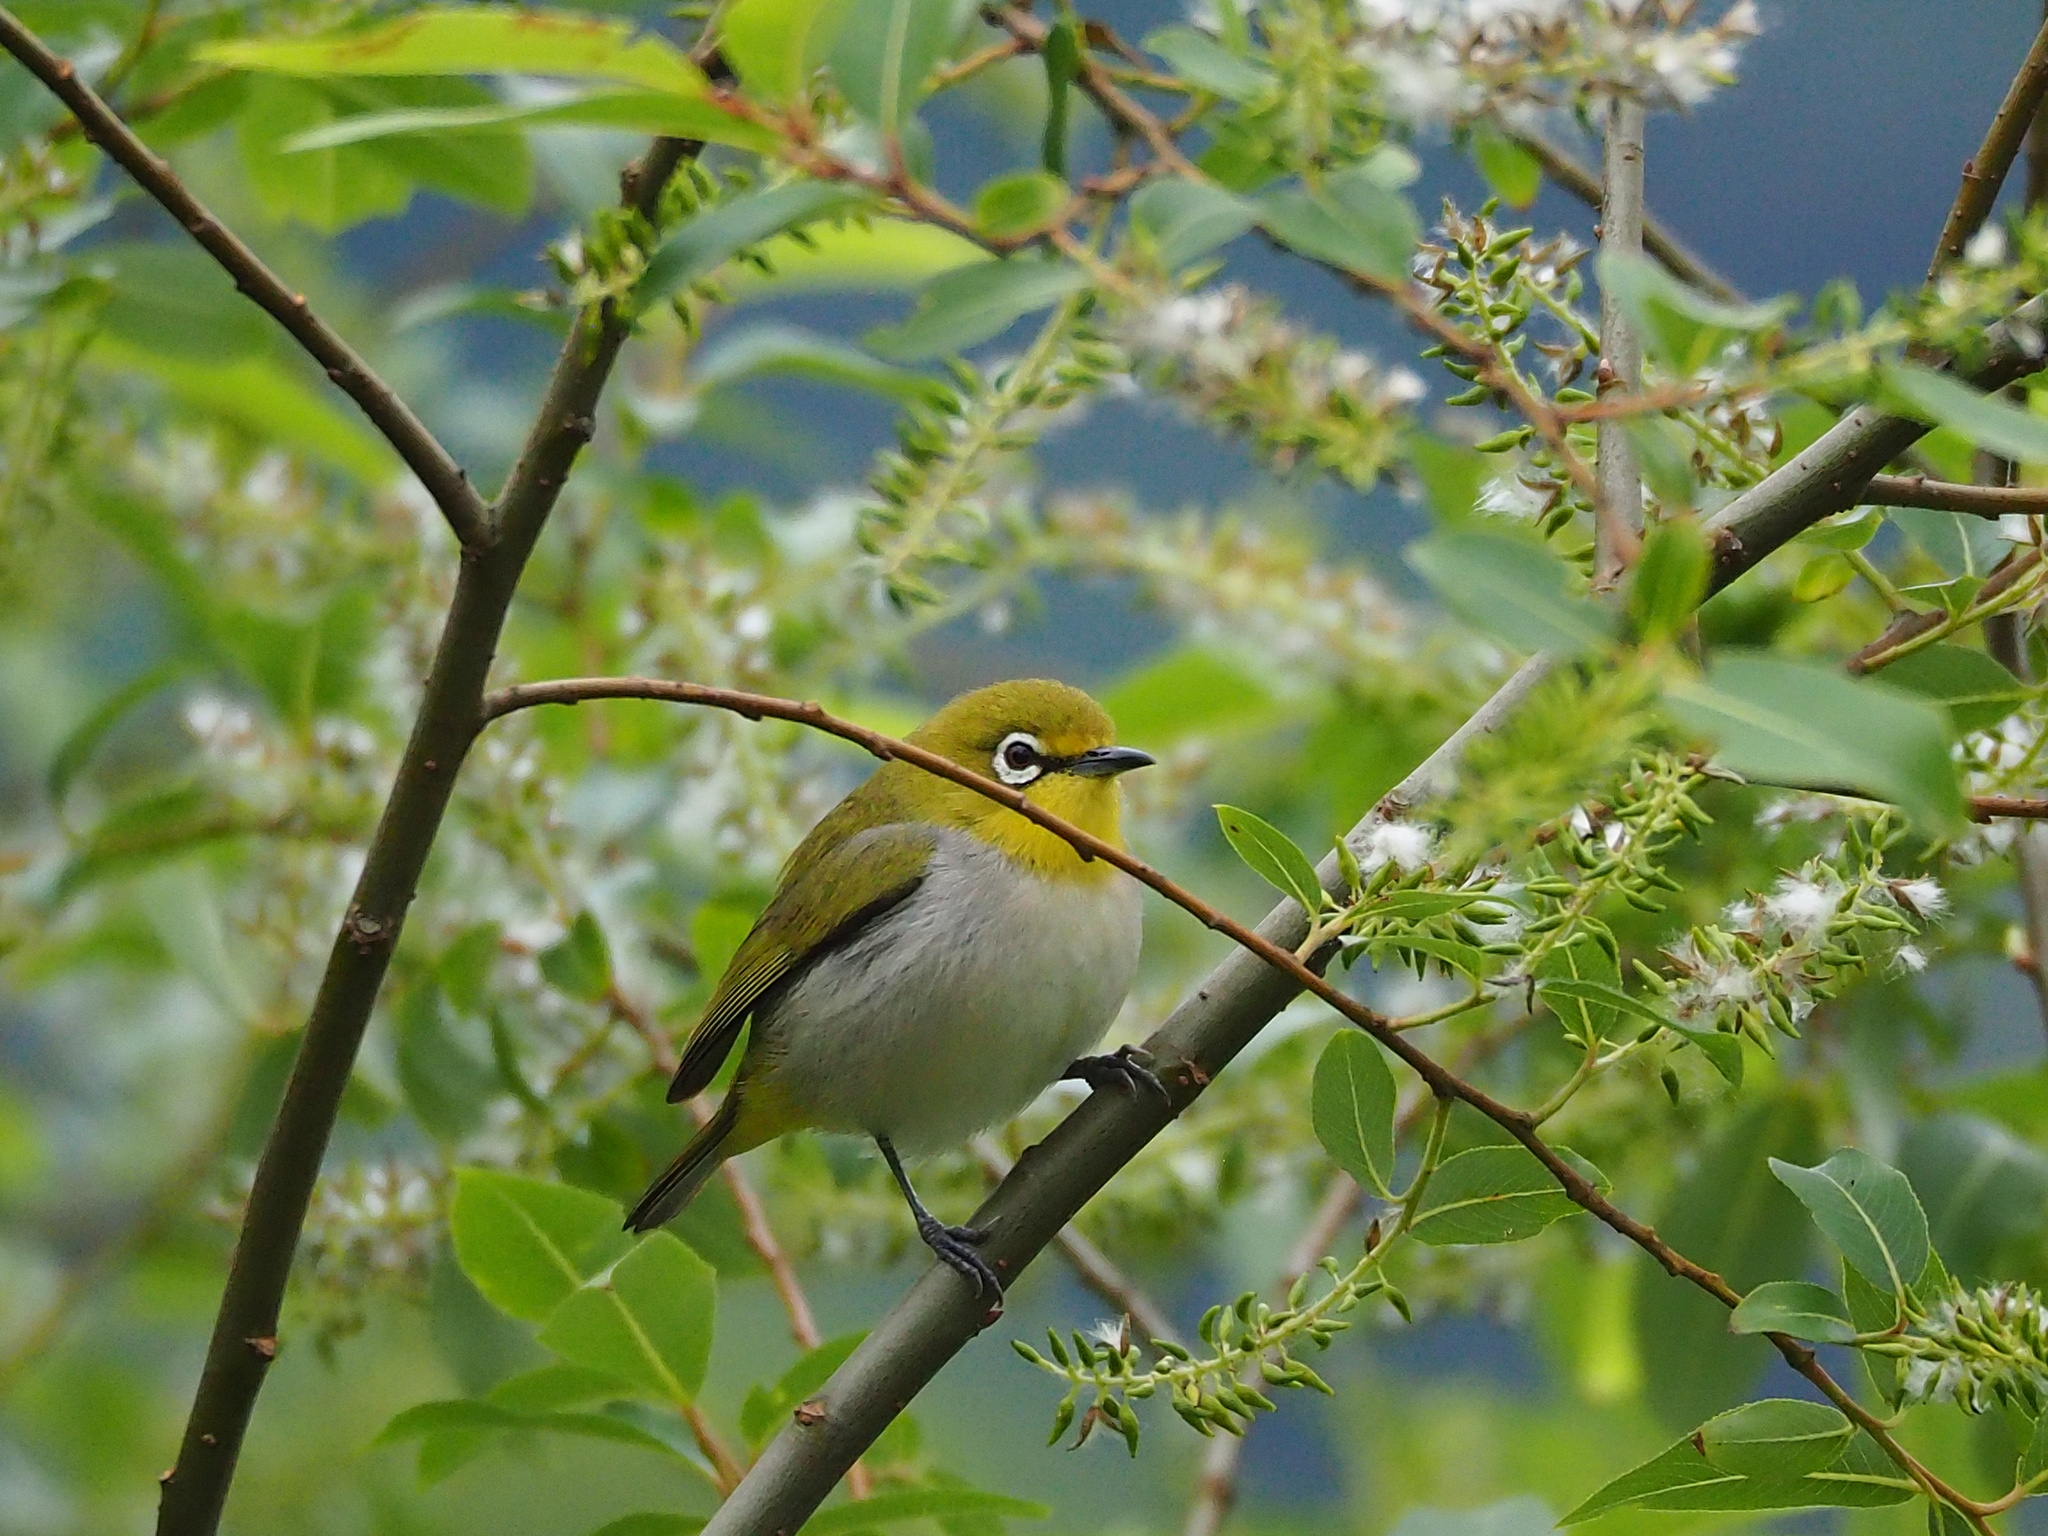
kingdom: Animalia
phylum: Chordata
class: Aves
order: Passeriformes
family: Zosteropidae
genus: Zosterops
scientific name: Zosterops simplex
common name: Swinhoe's white-eye
